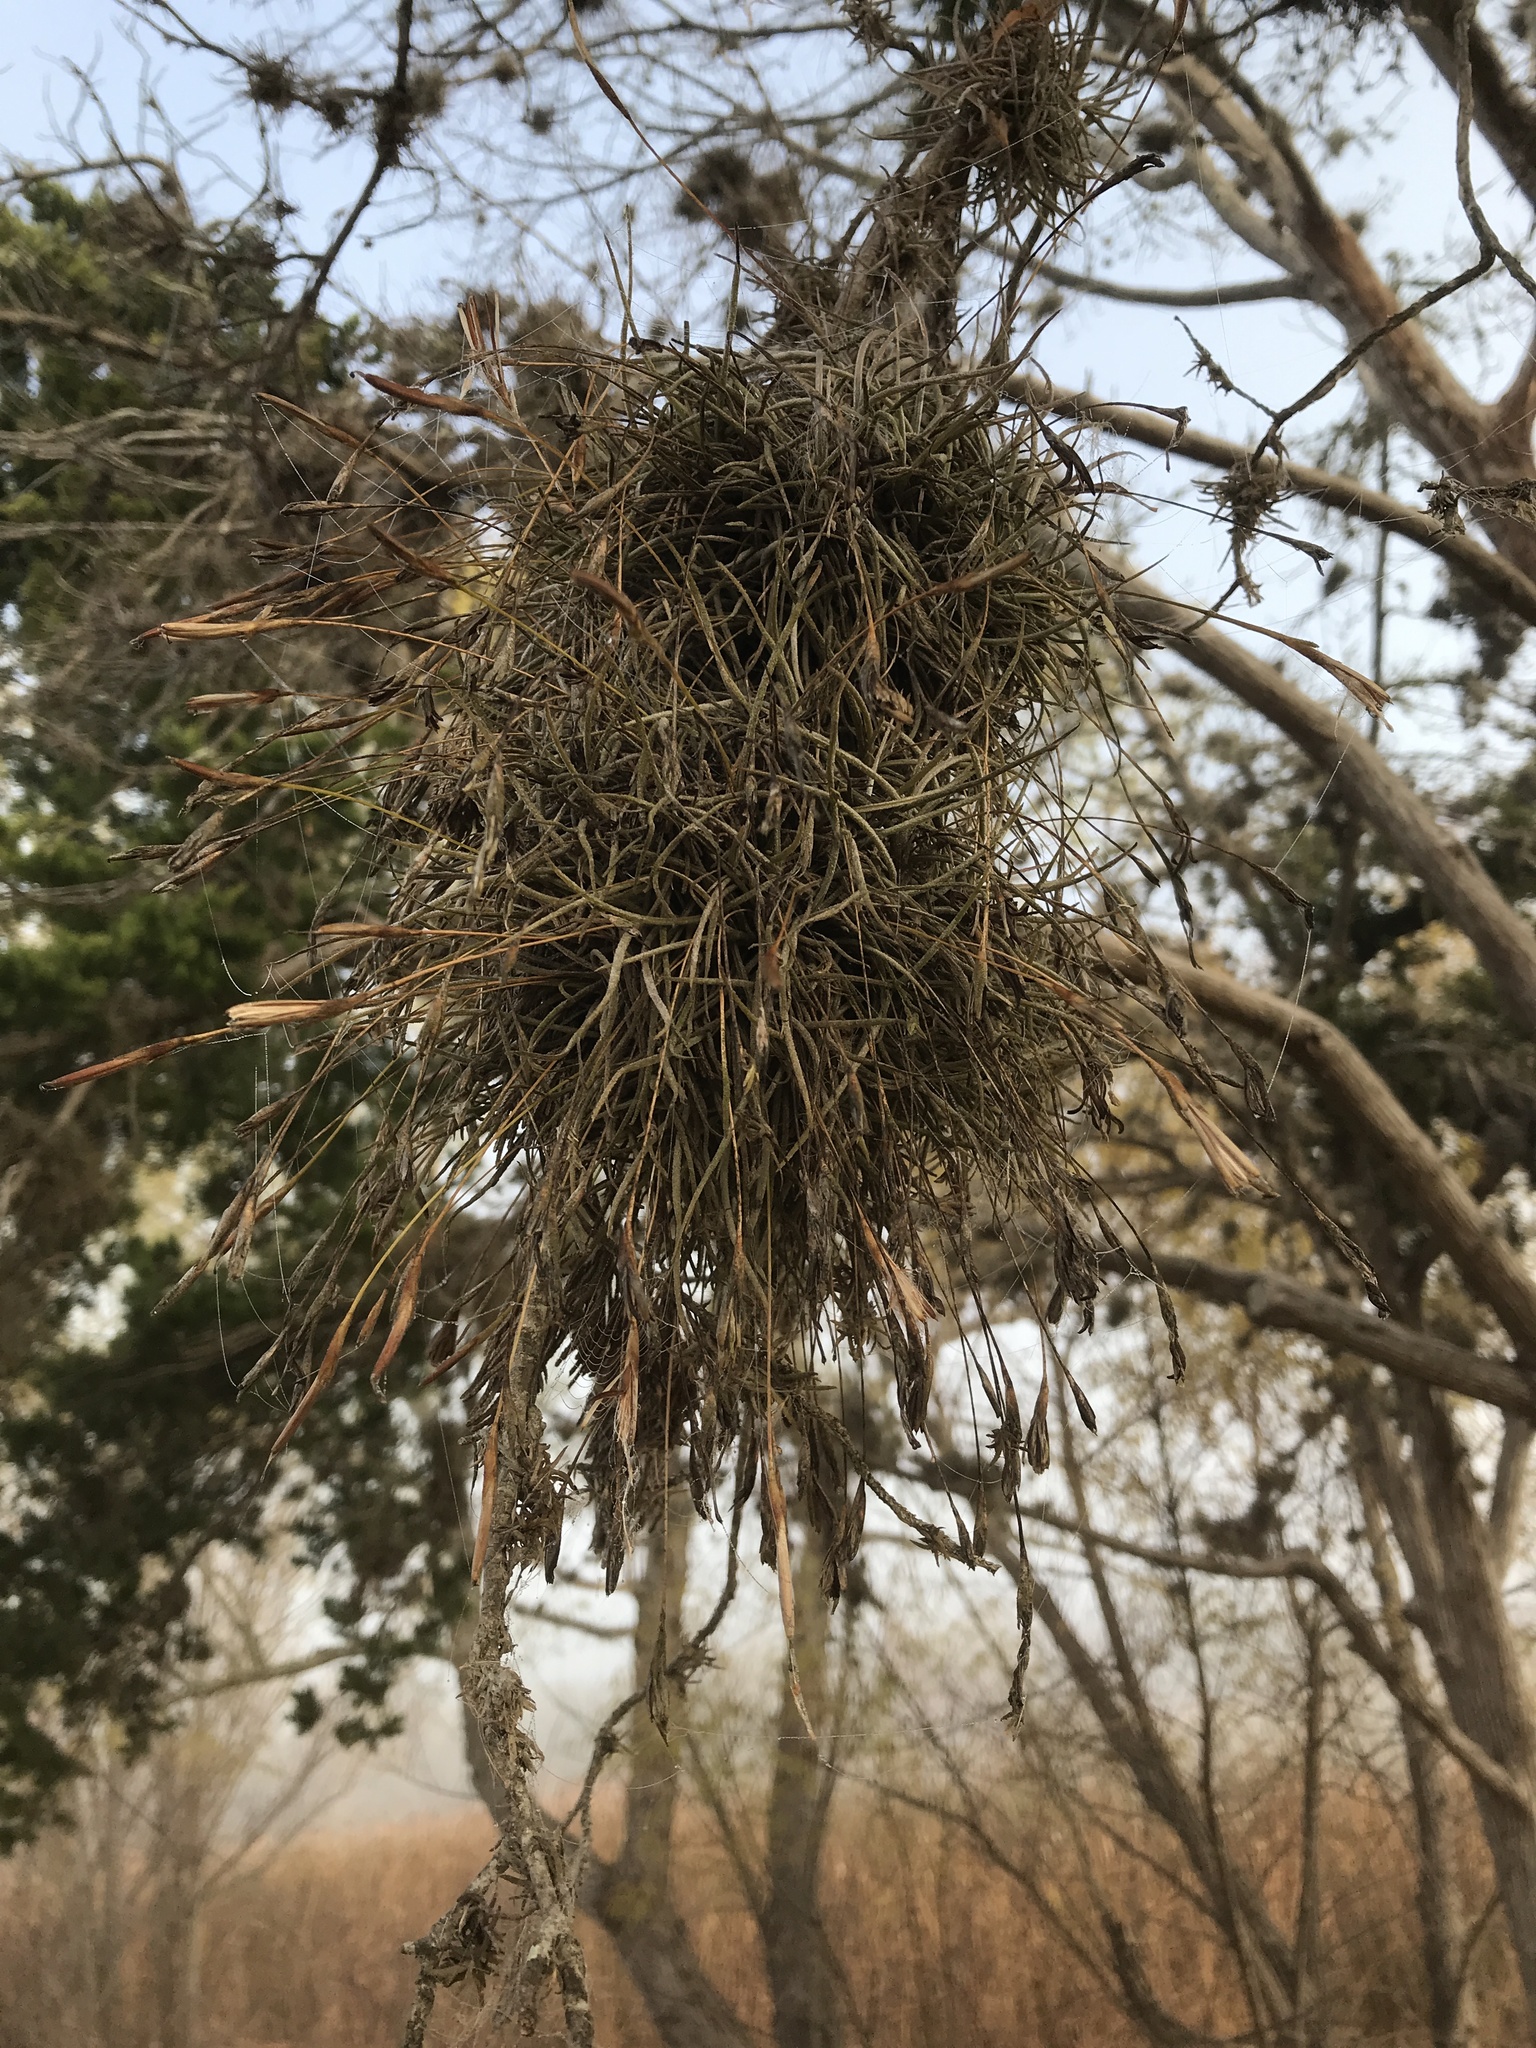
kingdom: Plantae
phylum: Tracheophyta
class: Liliopsida
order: Poales
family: Bromeliaceae
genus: Tillandsia
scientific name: Tillandsia recurvata
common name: Small ballmoss
